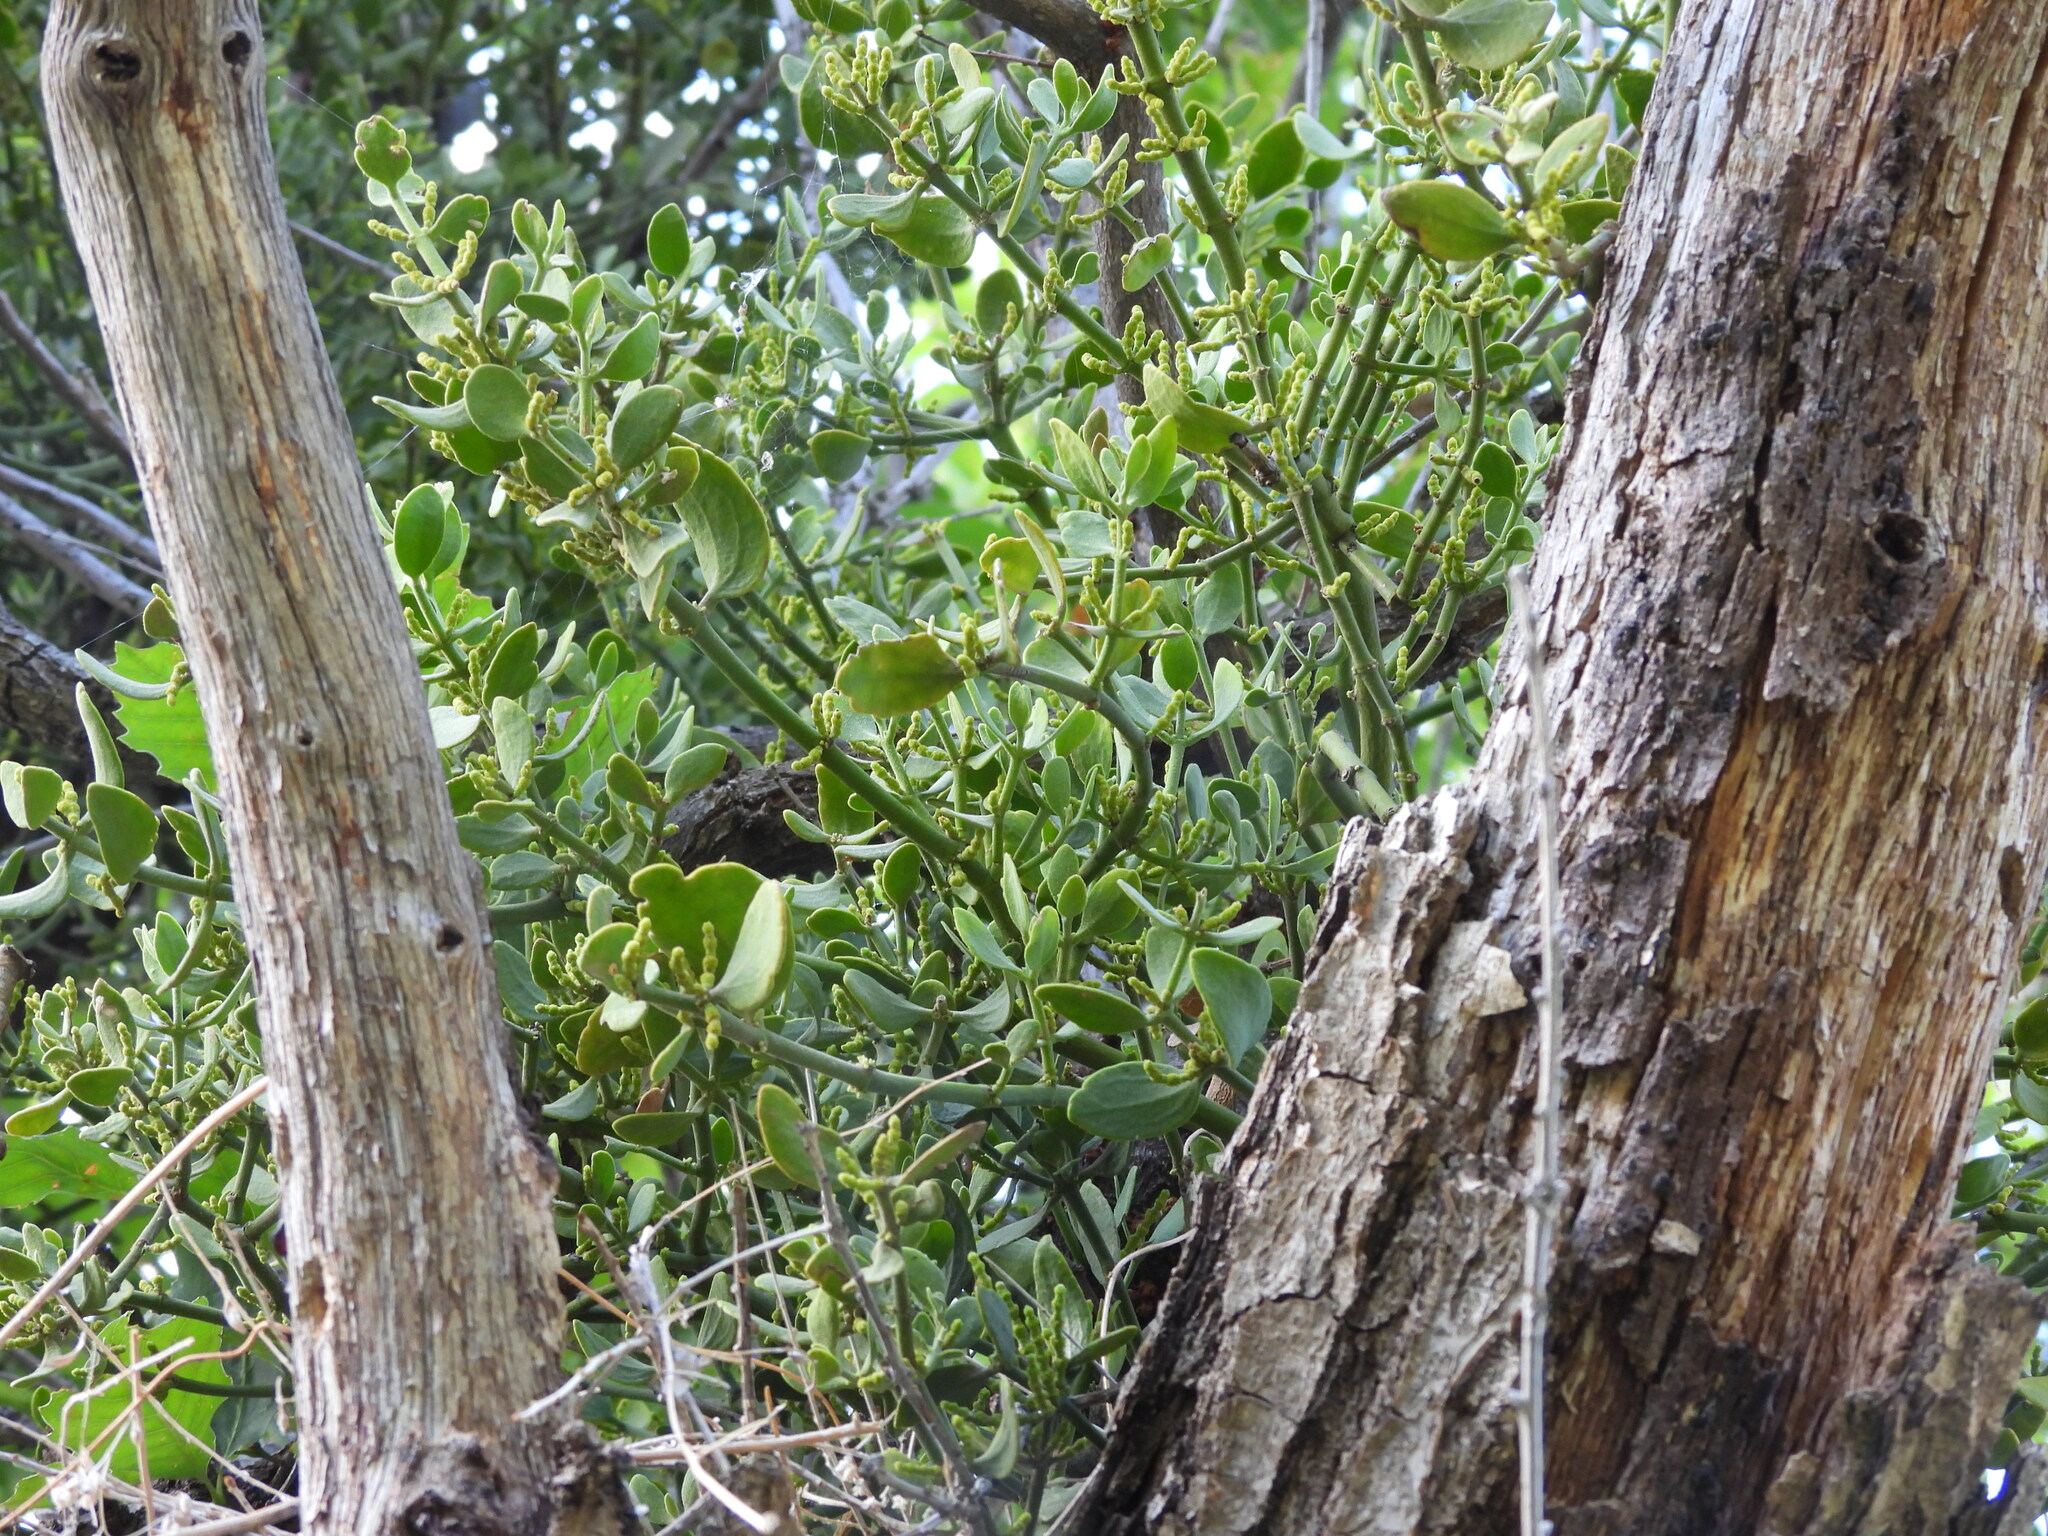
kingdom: Plantae
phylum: Tracheophyta
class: Magnoliopsida
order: Santalales
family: Viscaceae
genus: Phoradendron
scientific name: Phoradendron coryae
